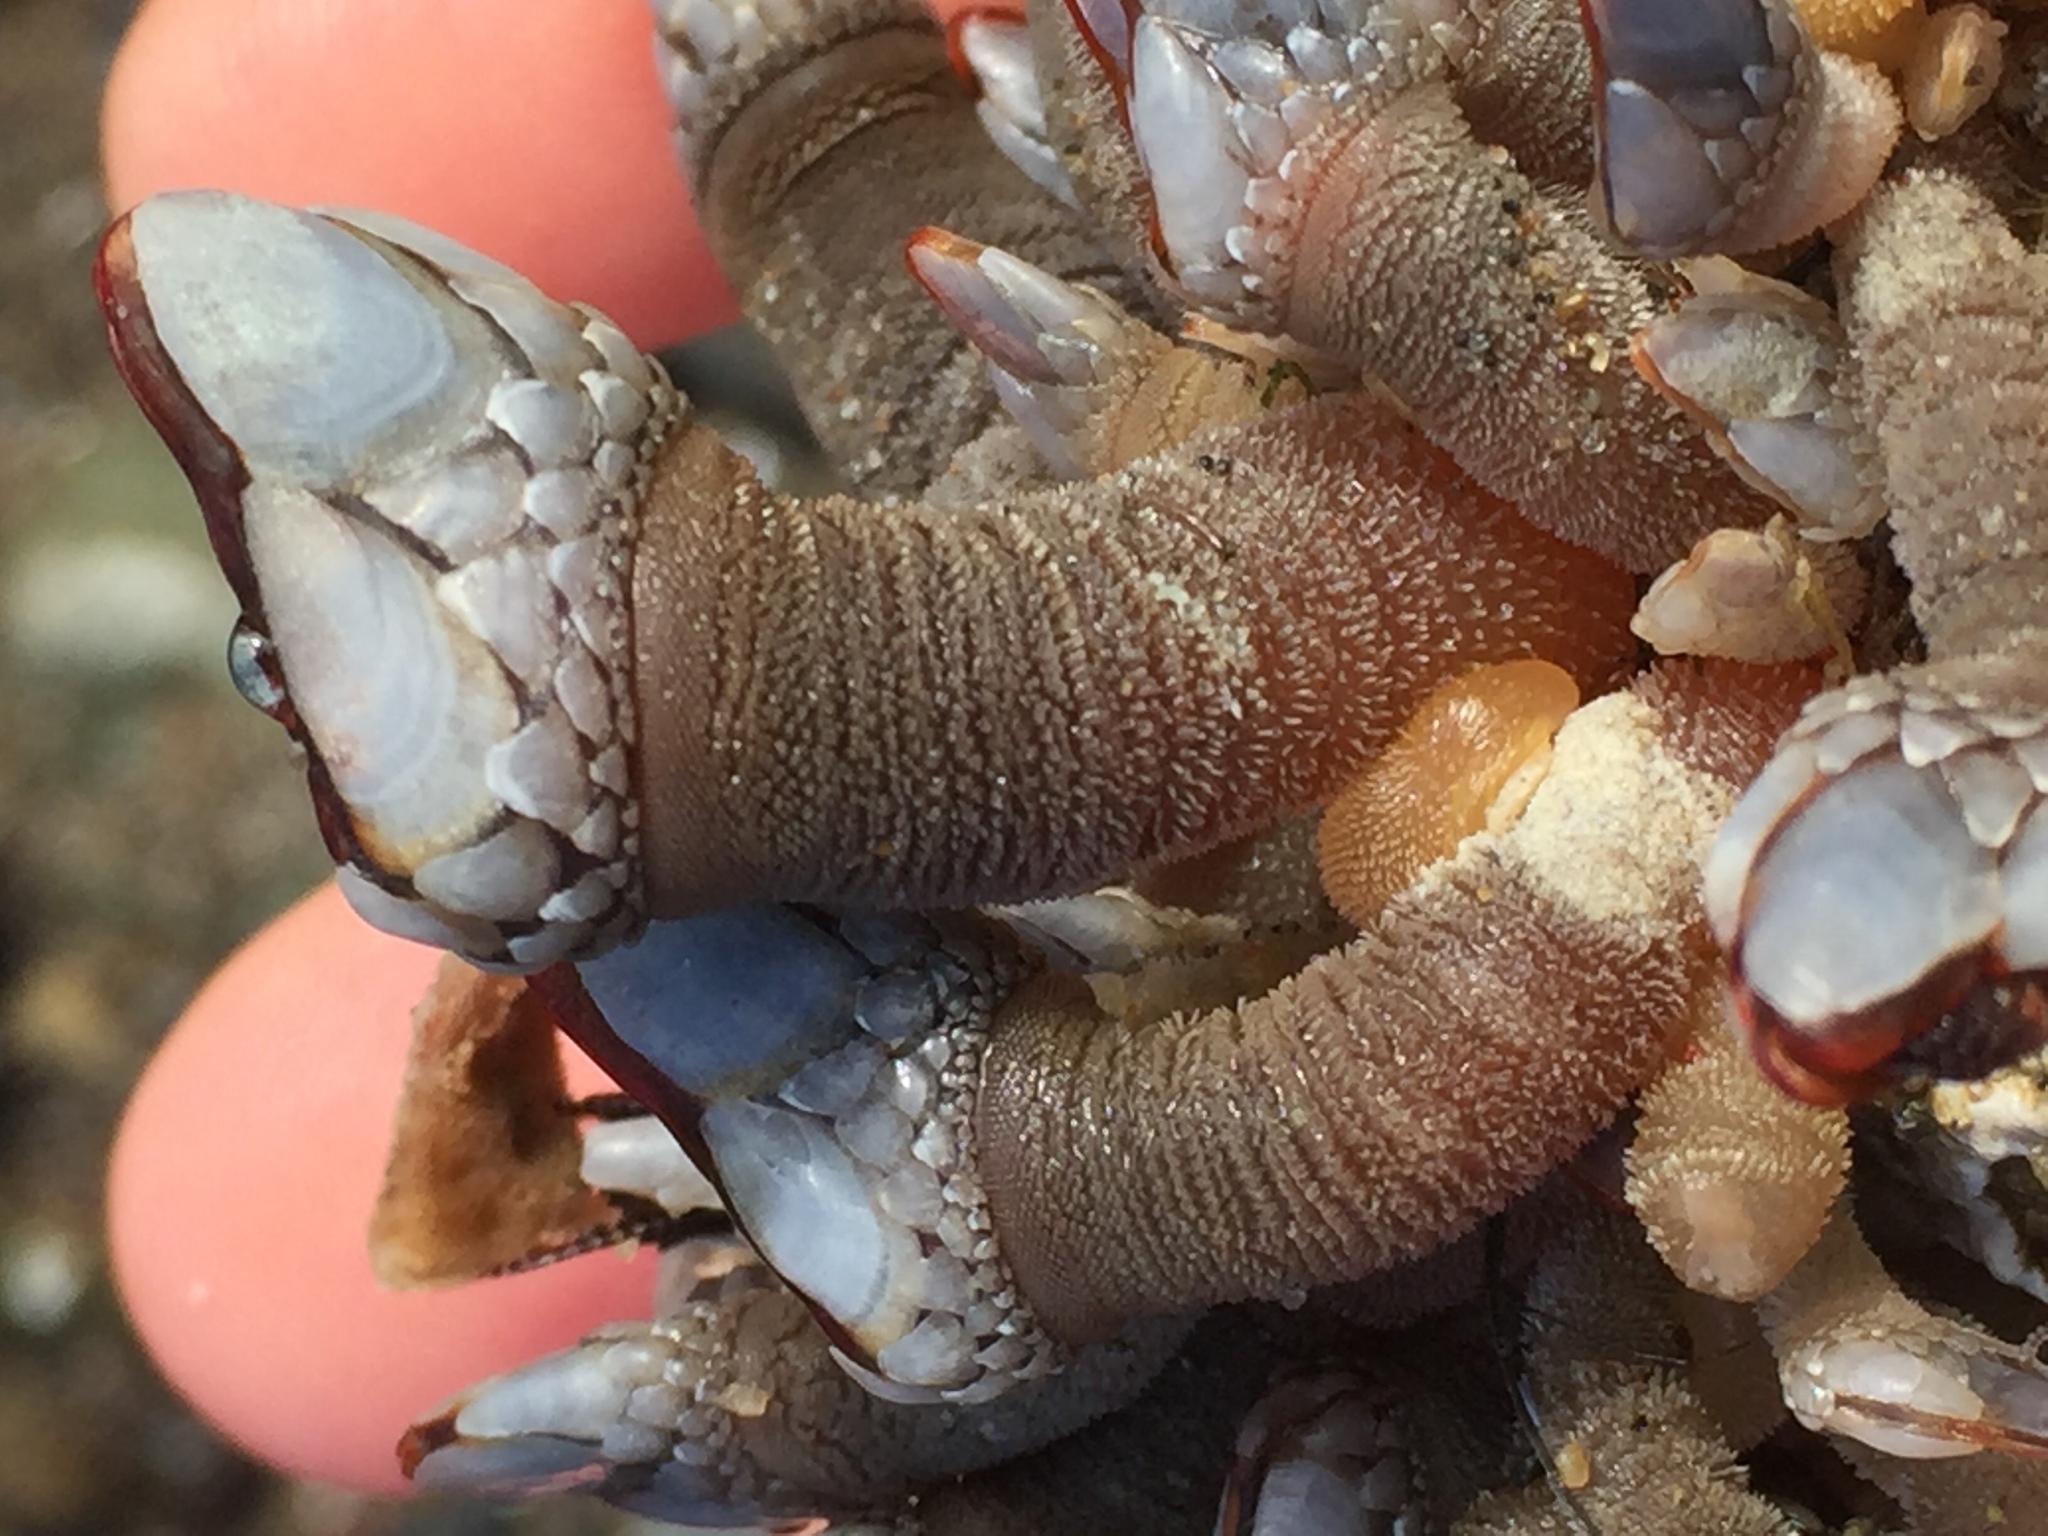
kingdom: Animalia
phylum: Arthropoda
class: Maxillopoda
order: Pedunculata
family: Pollicipedidae
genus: Pollicipes
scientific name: Pollicipes polymerus
